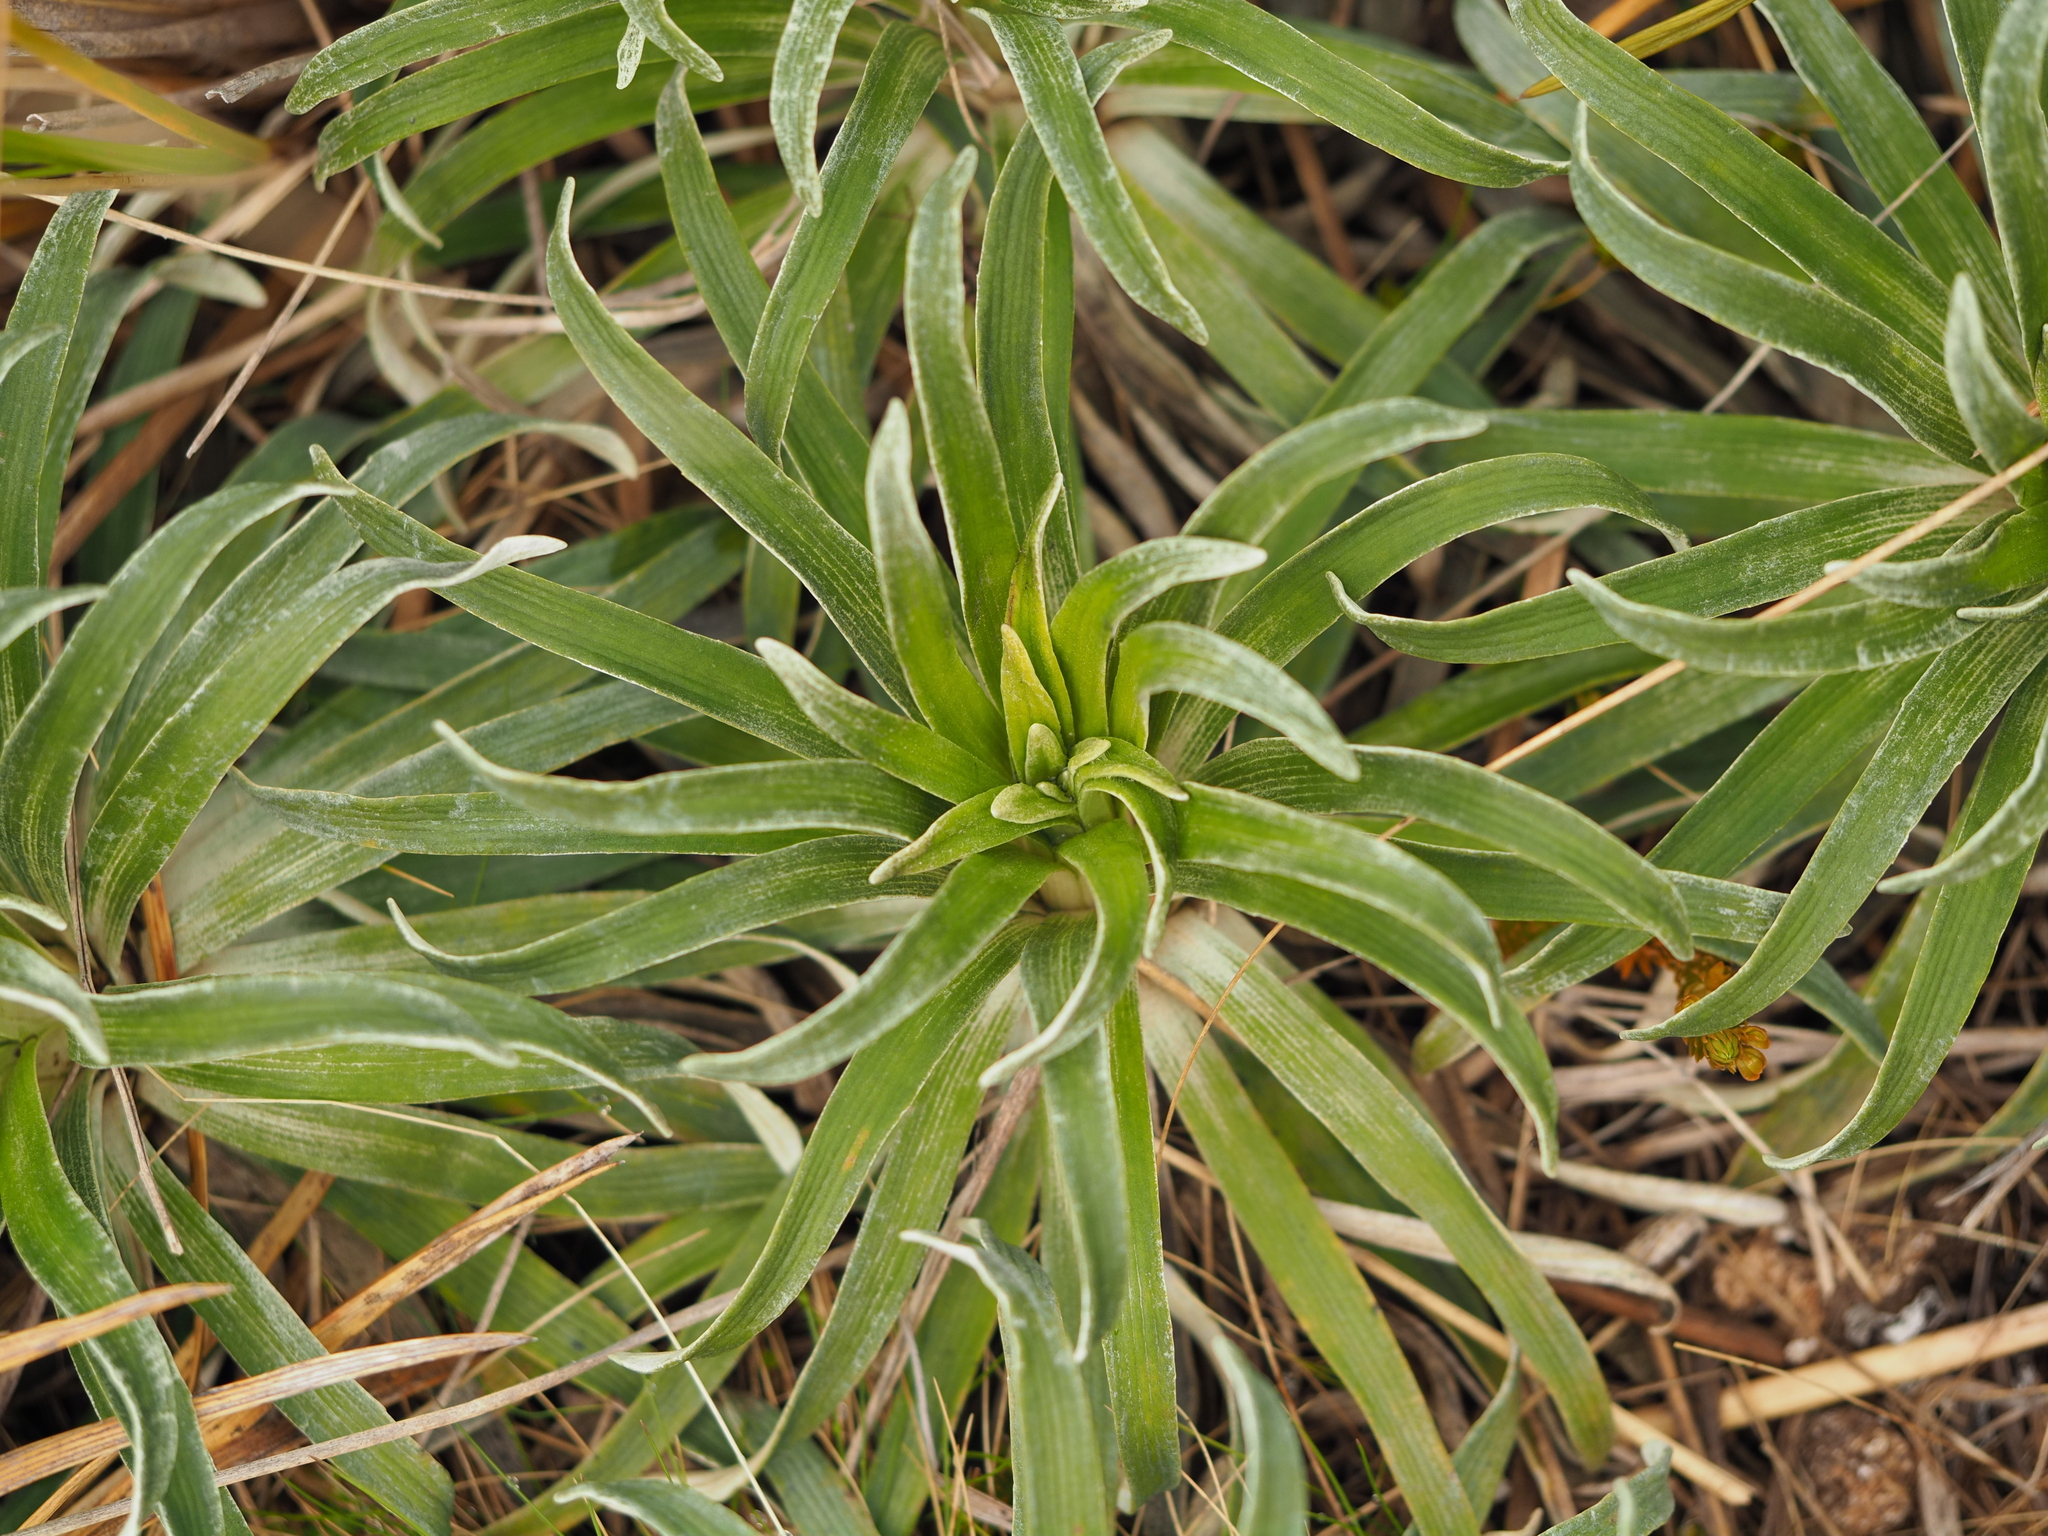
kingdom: Plantae
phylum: Tracheophyta
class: Magnoliopsida
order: Asterales
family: Asteraceae
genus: Celmisia
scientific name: Celmisia viscosa
